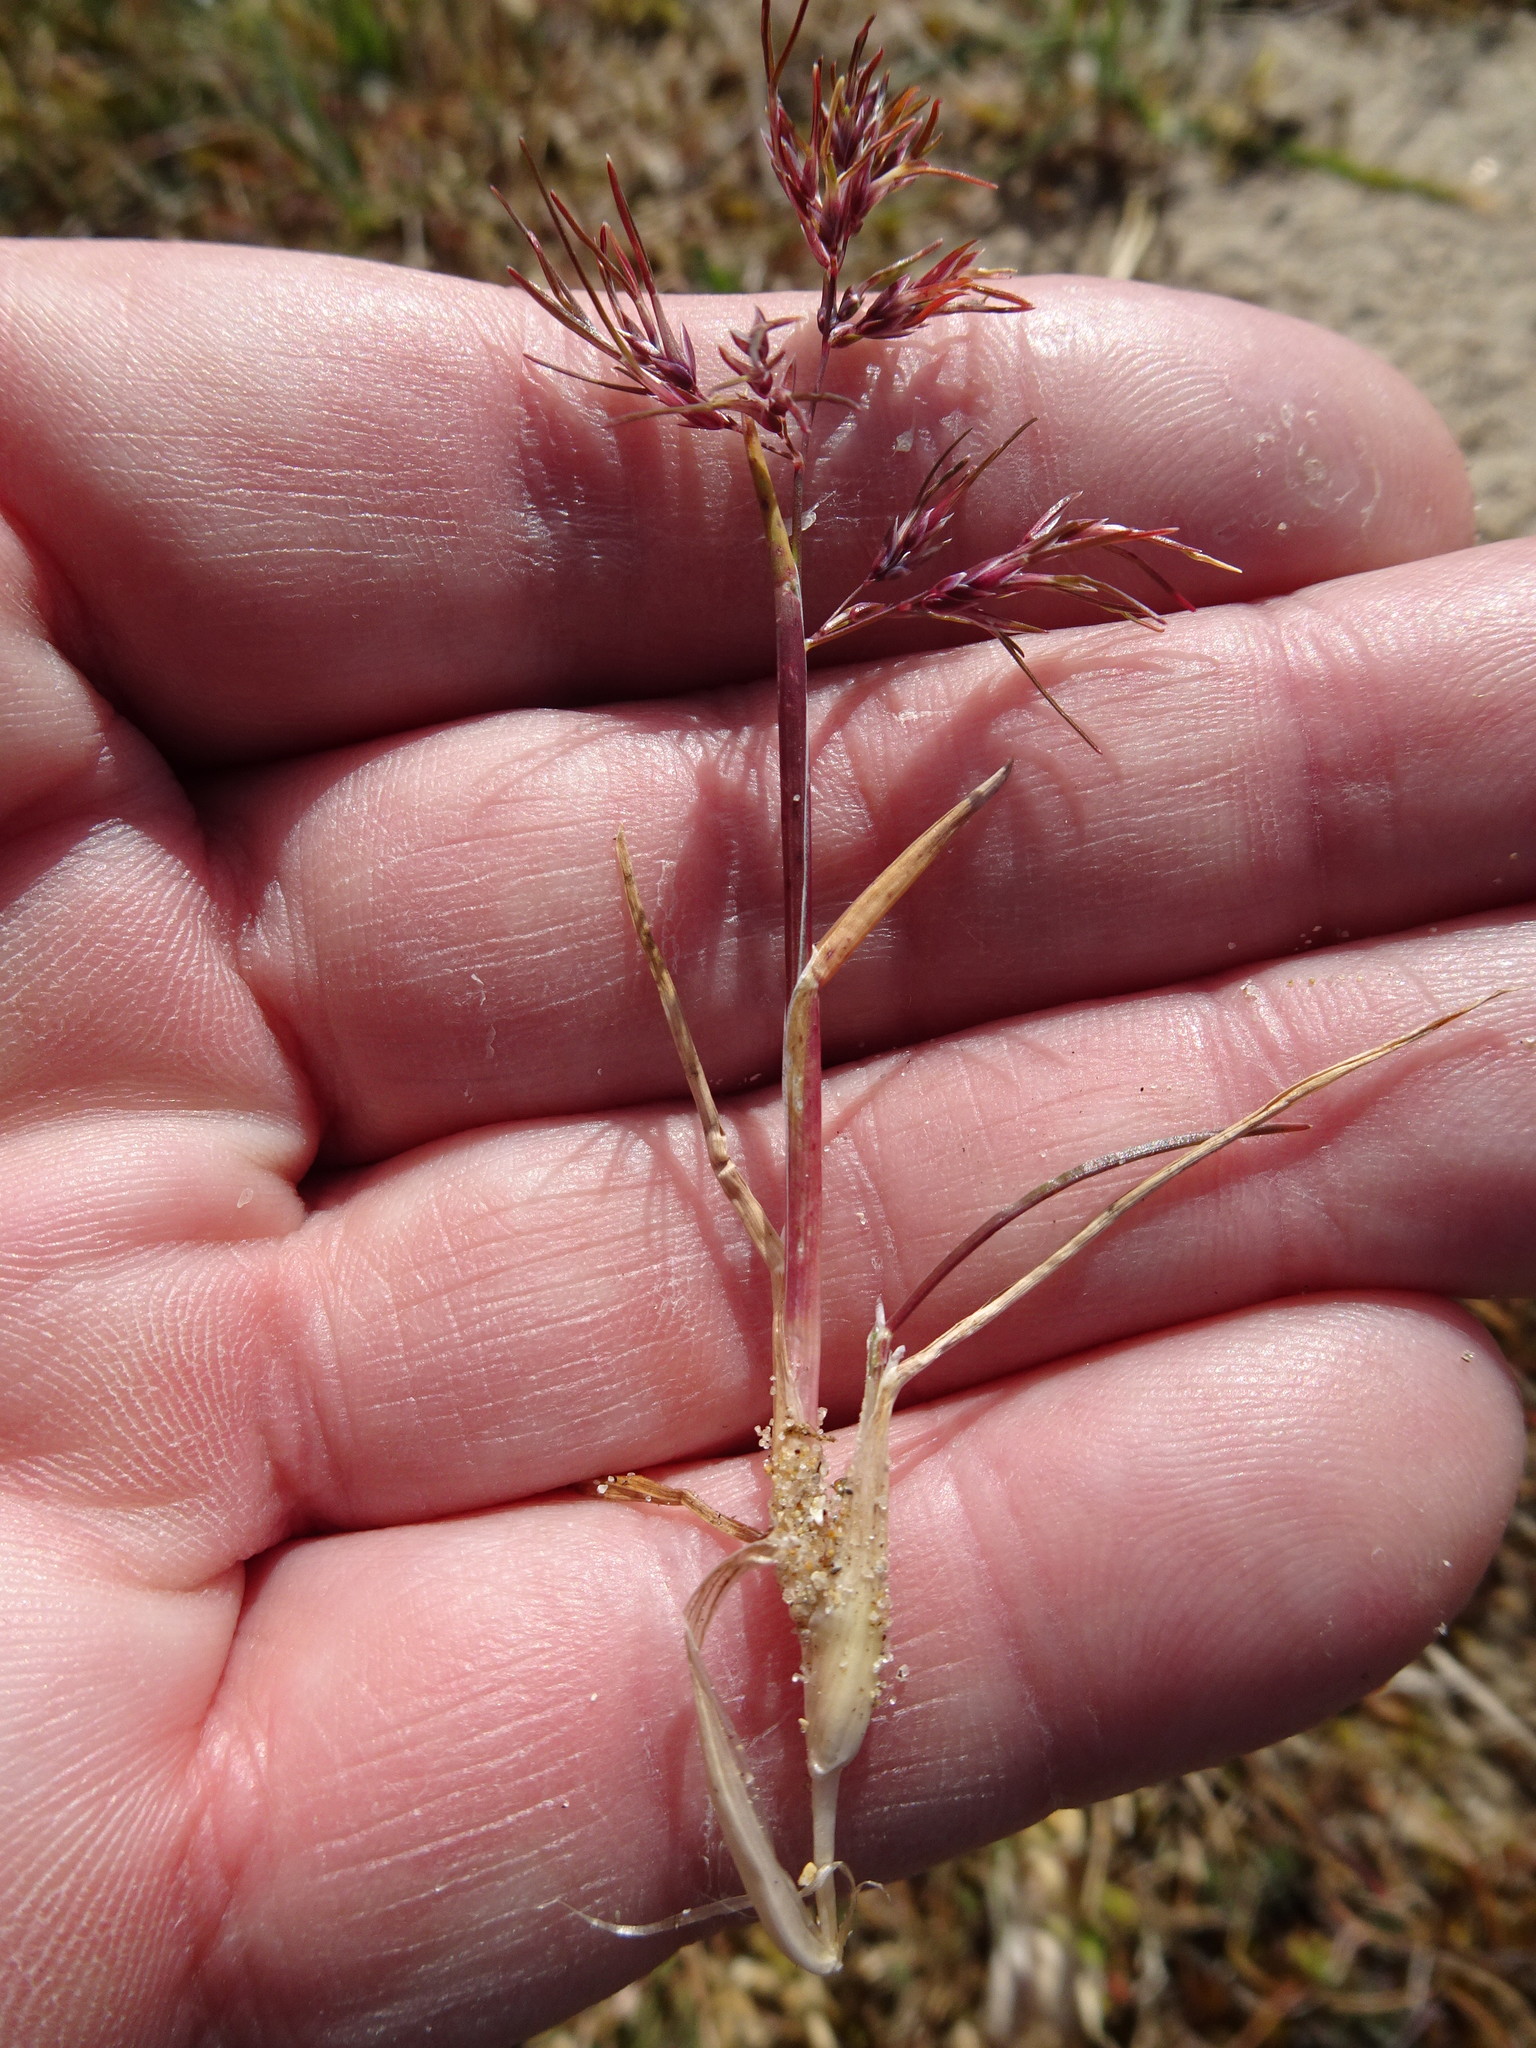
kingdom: Plantae
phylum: Tracheophyta
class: Liliopsida
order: Poales
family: Poaceae
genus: Poa
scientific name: Poa bulbosa
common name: Bulbous bluegrass
